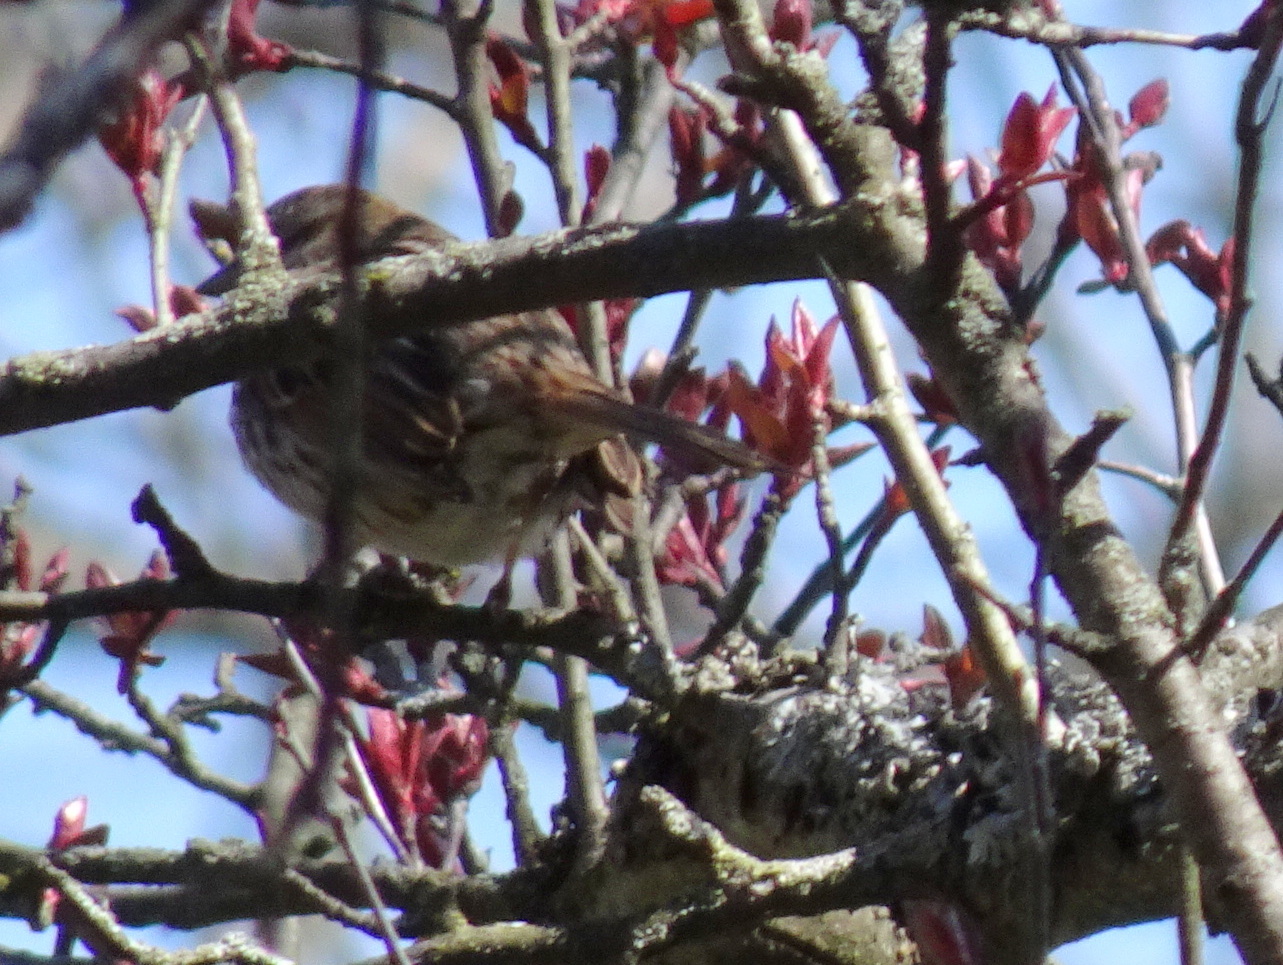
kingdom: Animalia
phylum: Chordata
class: Aves
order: Passeriformes
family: Passerellidae
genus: Melospiza
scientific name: Melospiza melodia
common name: Song sparrow
